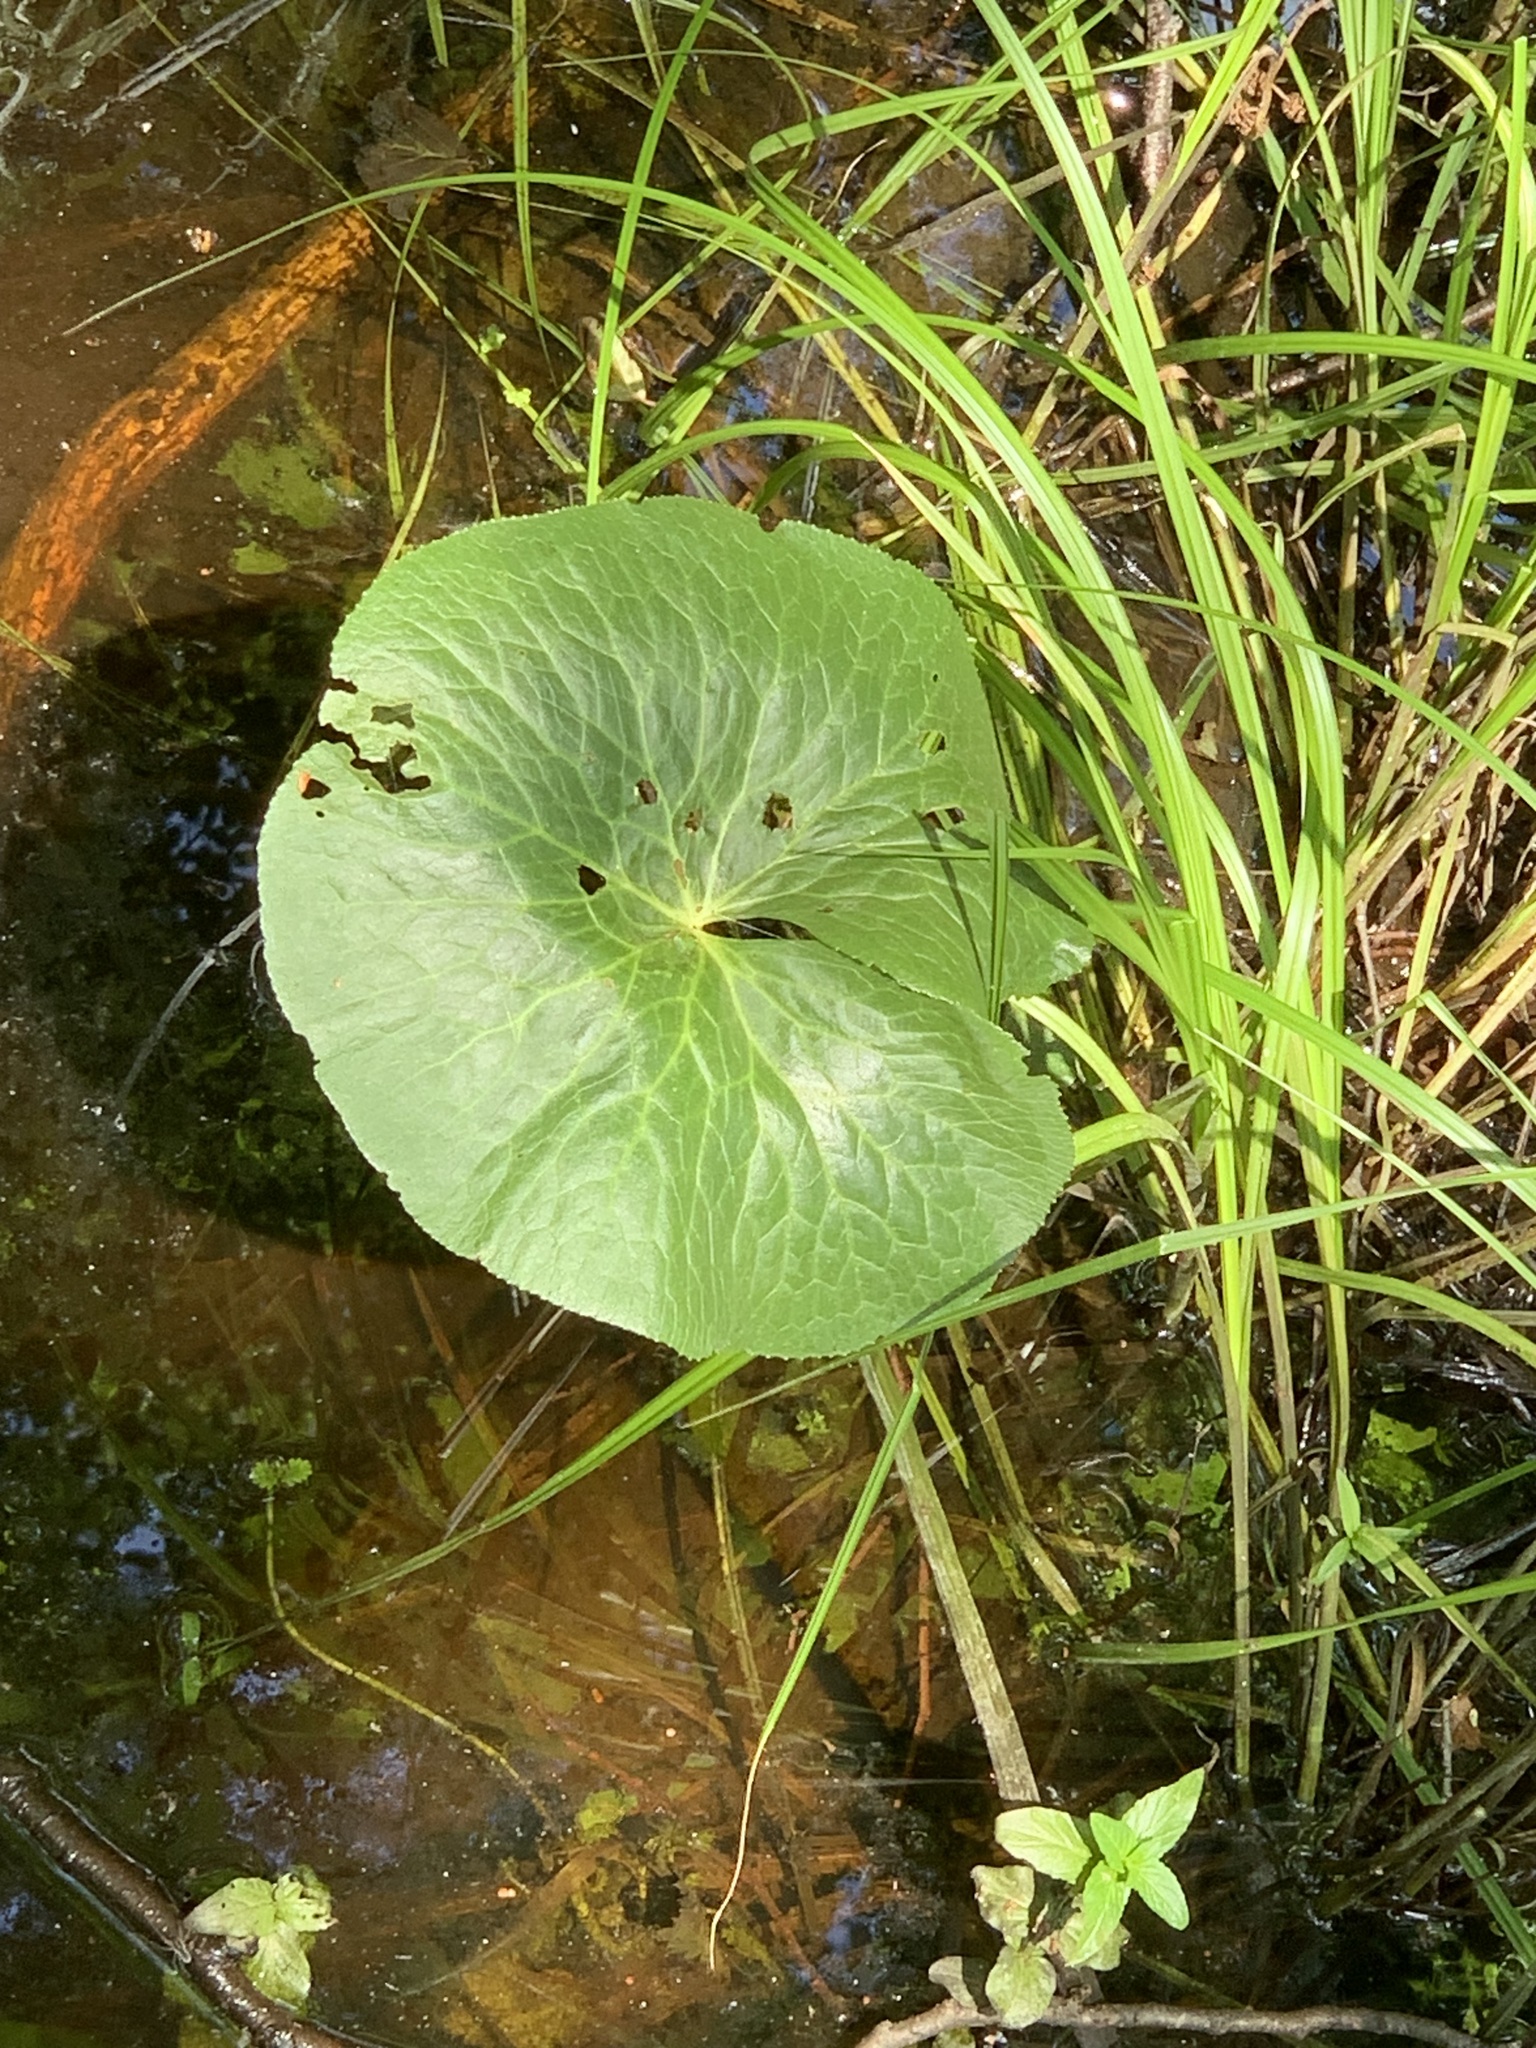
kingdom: Plantae
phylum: Tracheophyta
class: Magnoliopsida
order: Ranunculales
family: Ranunculaceae
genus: Caltha
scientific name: Caltha palustris
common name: Marsh marigold
